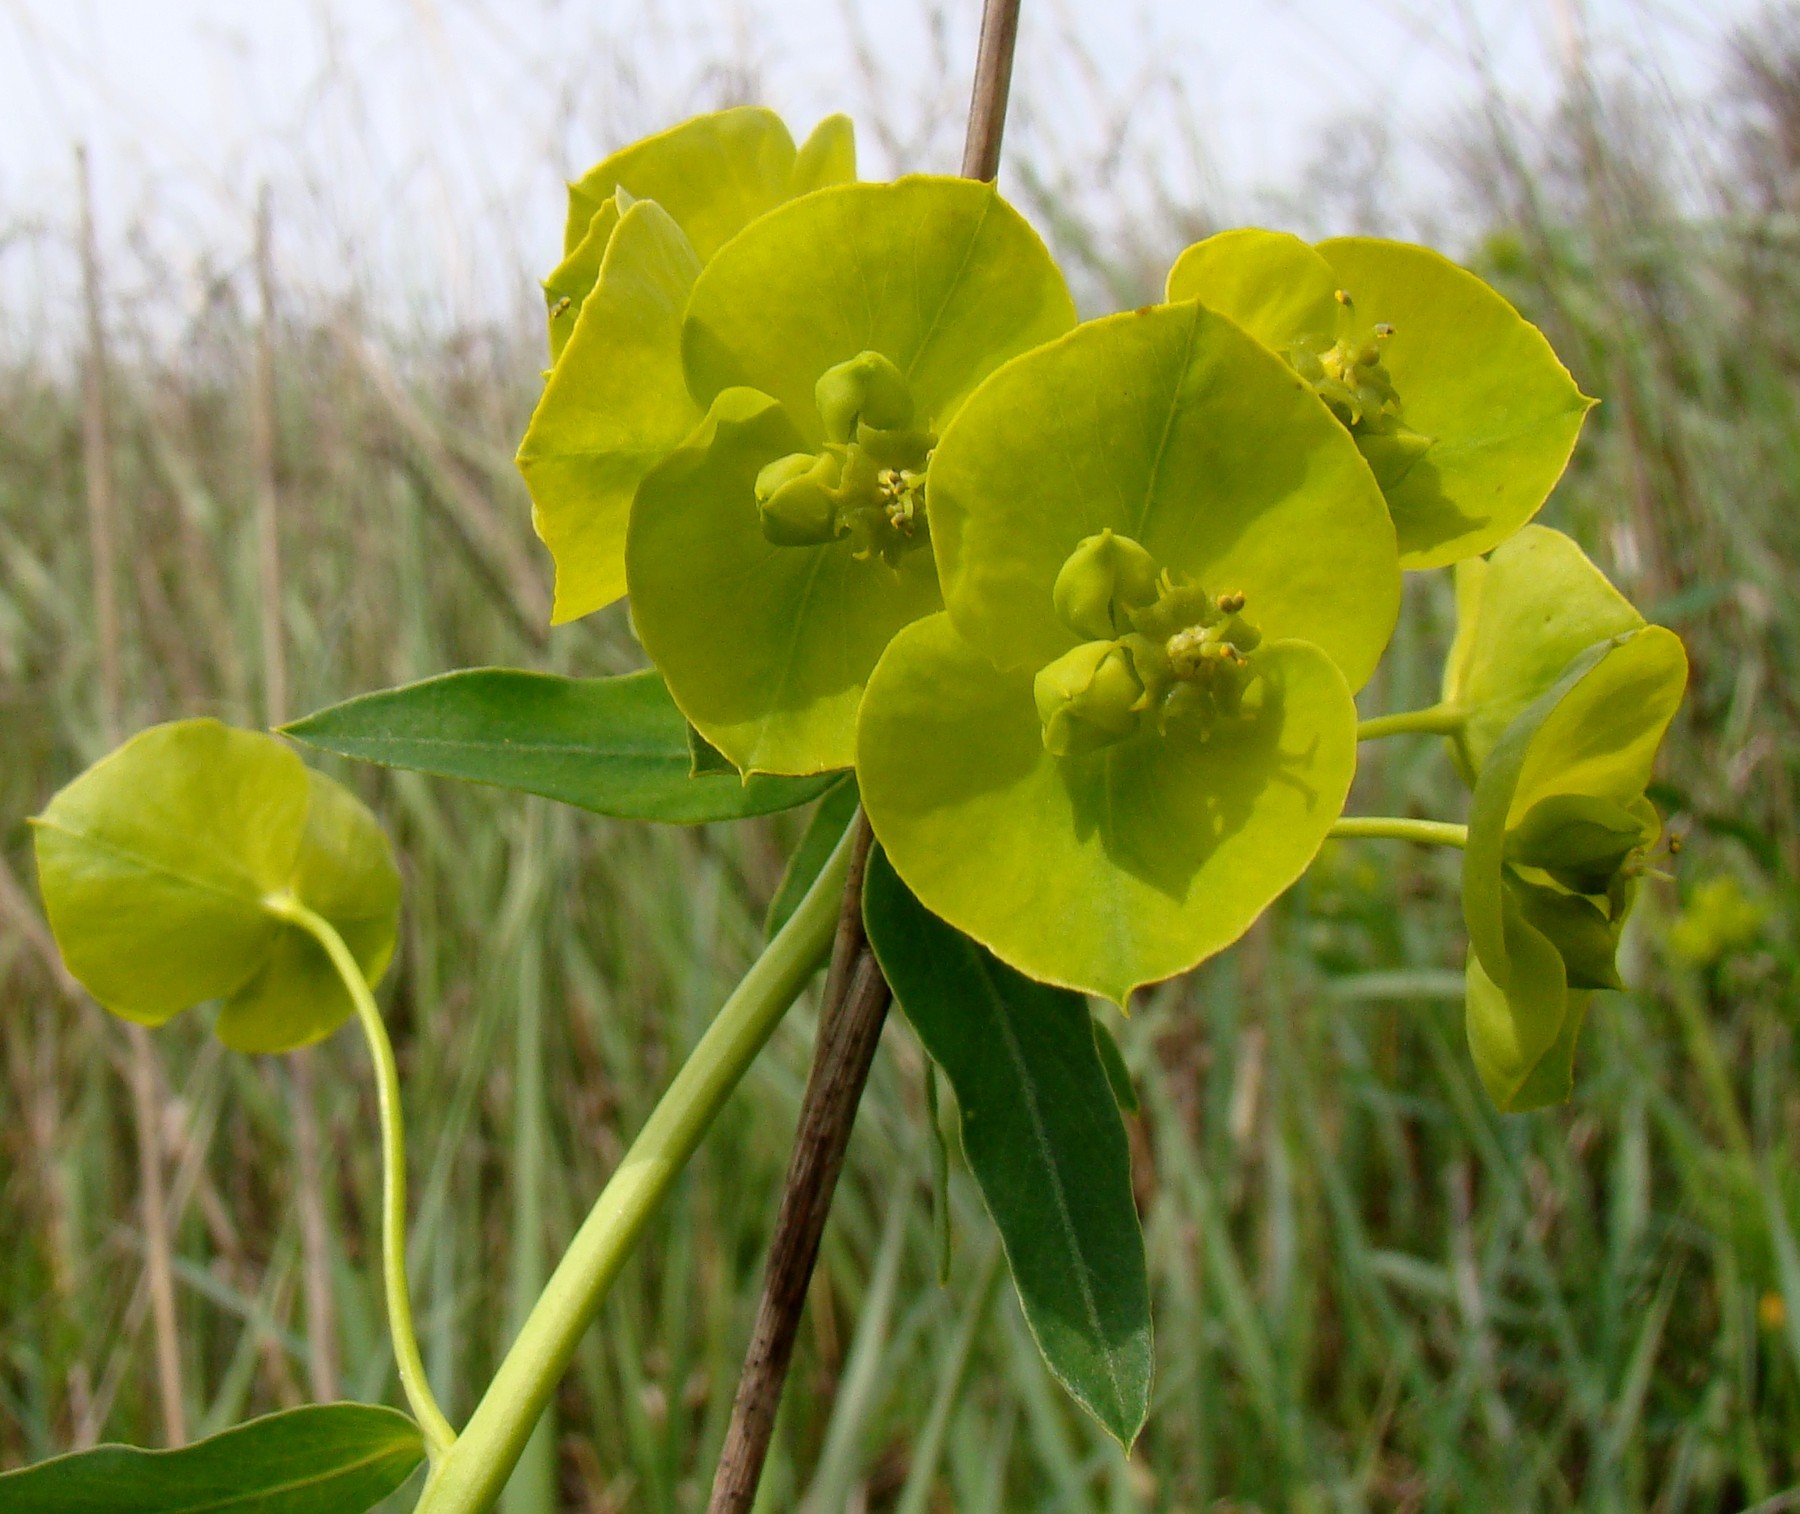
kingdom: Plantae
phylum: Tracheophyta
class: Magnoliopsida
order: Malpighiales
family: Euphorbiaceae
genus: Euphorbia
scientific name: Euphorbia virgata
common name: Leafy spurge
